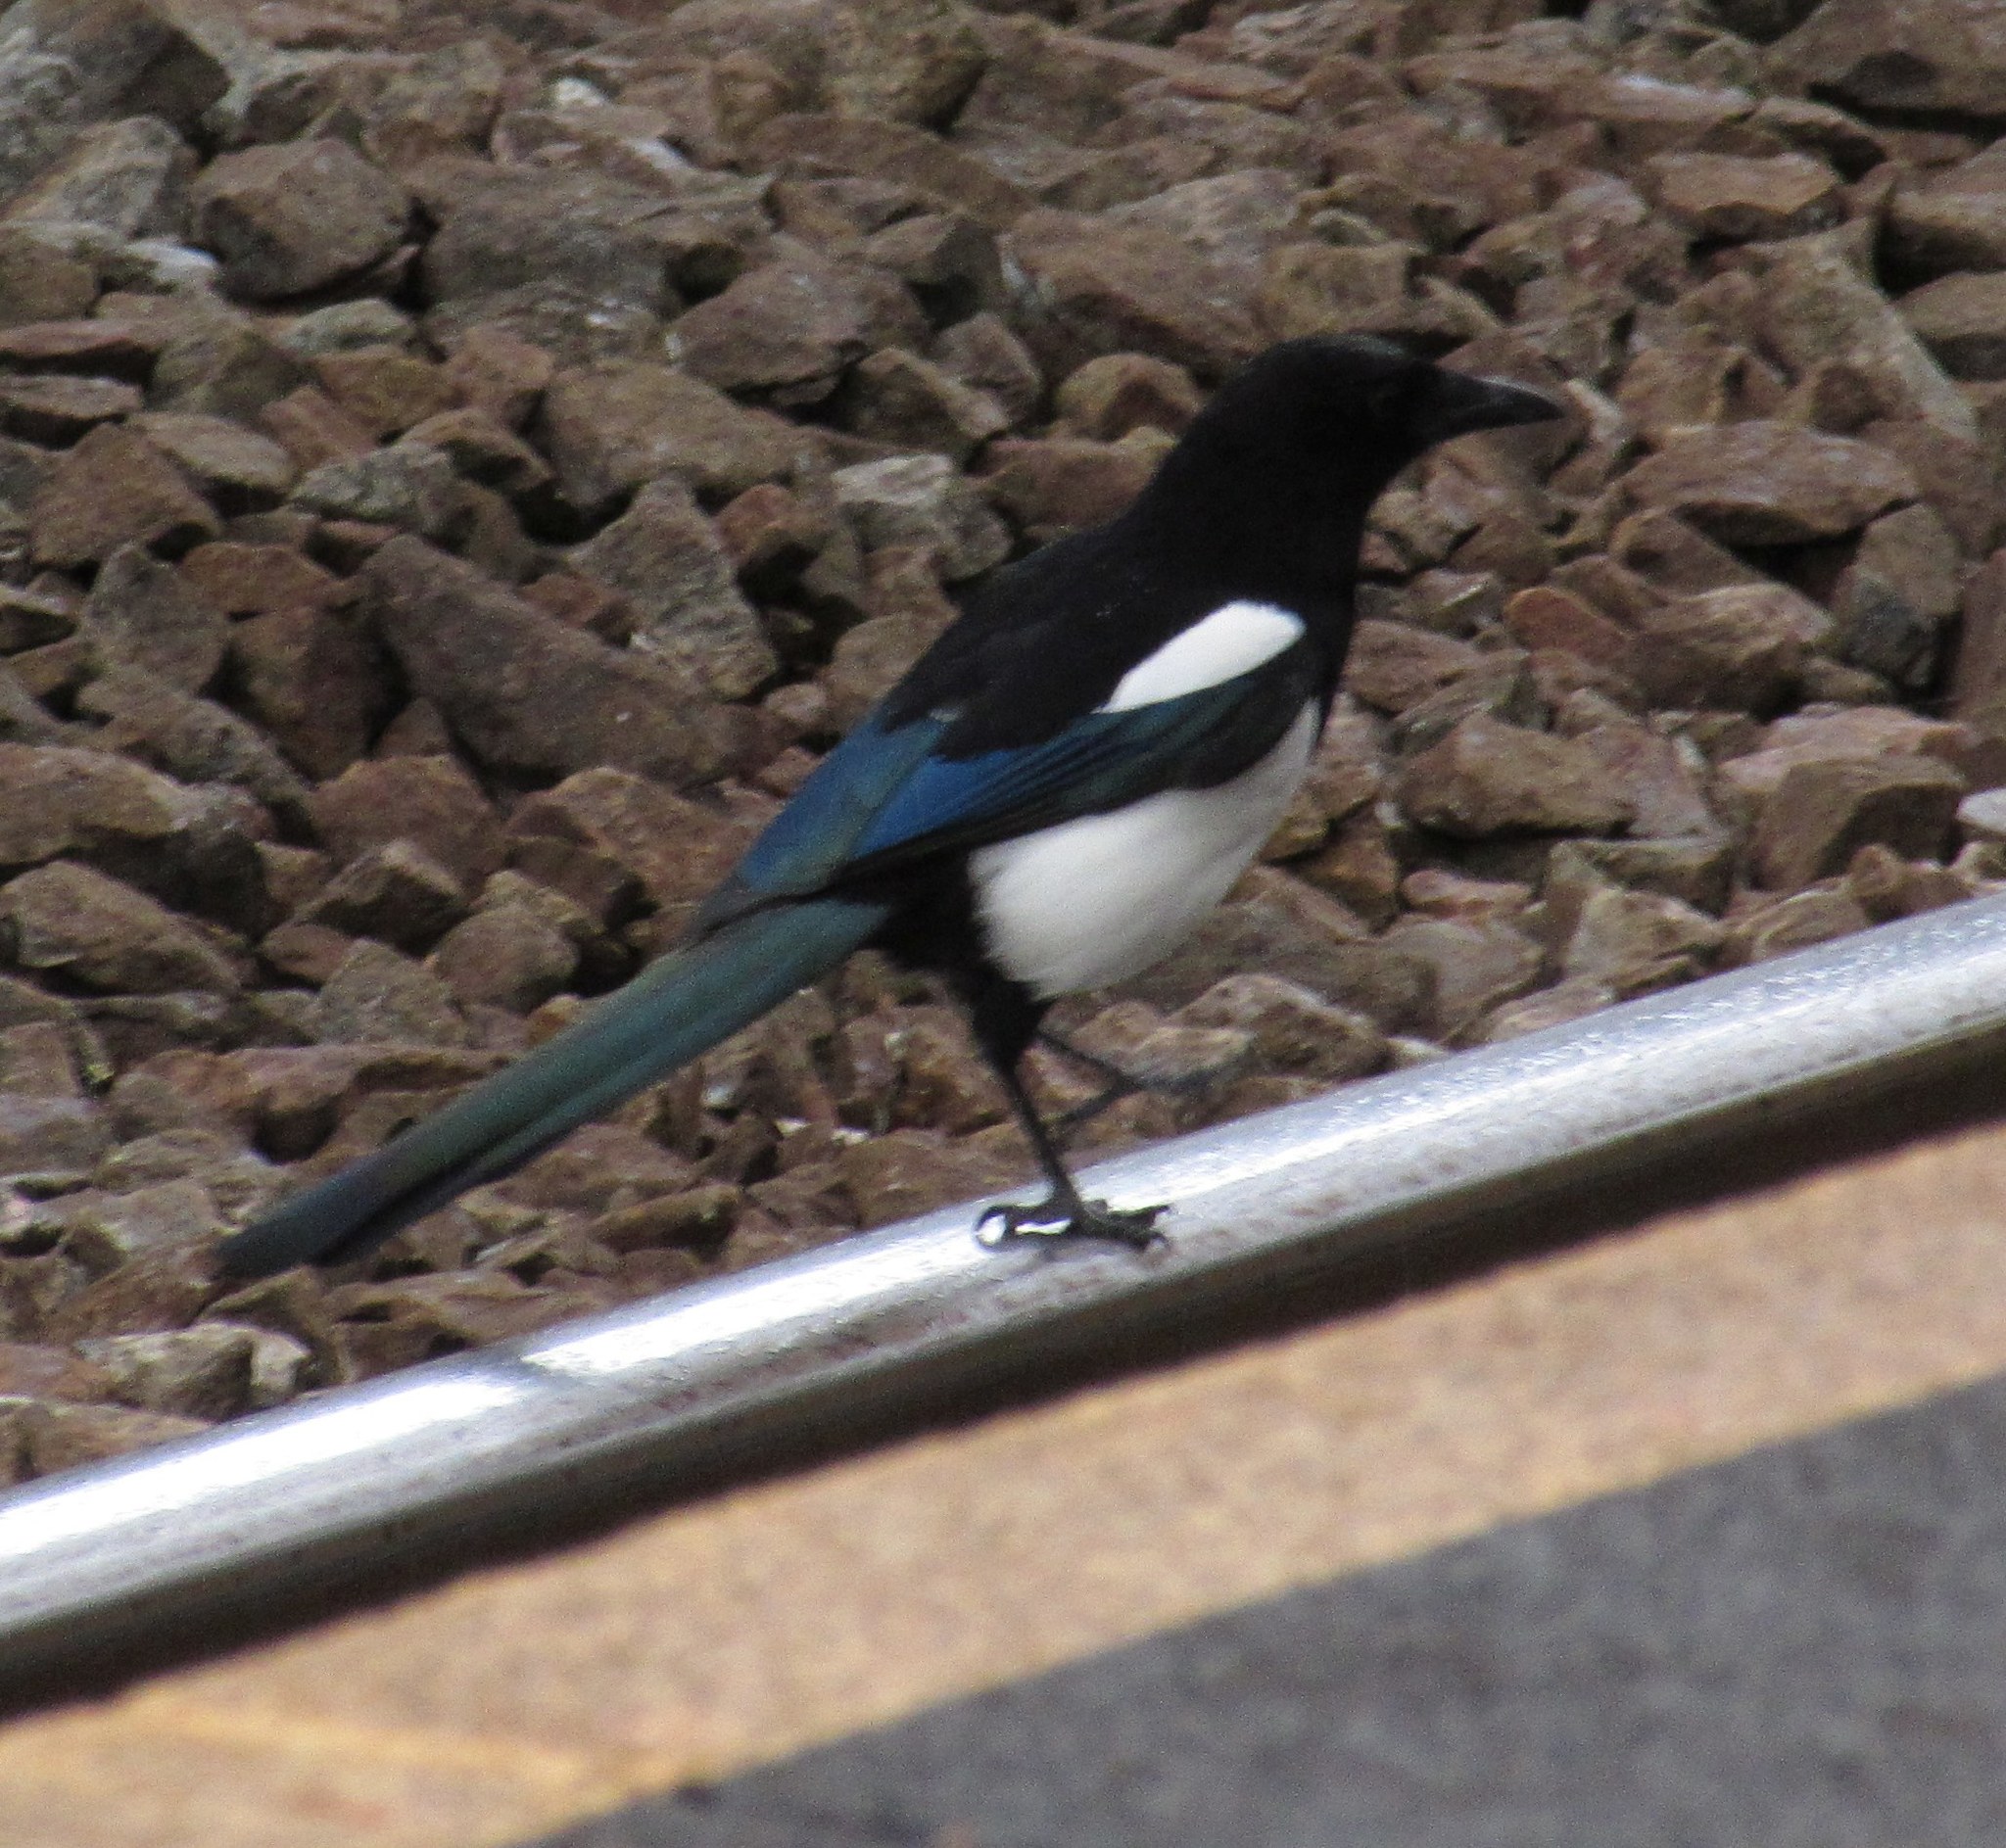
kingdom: Animalia
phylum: Chordata
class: Aves
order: Passeriformes
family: Corvidae
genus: Pica
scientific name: Pica pica
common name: Eurasian magpie
